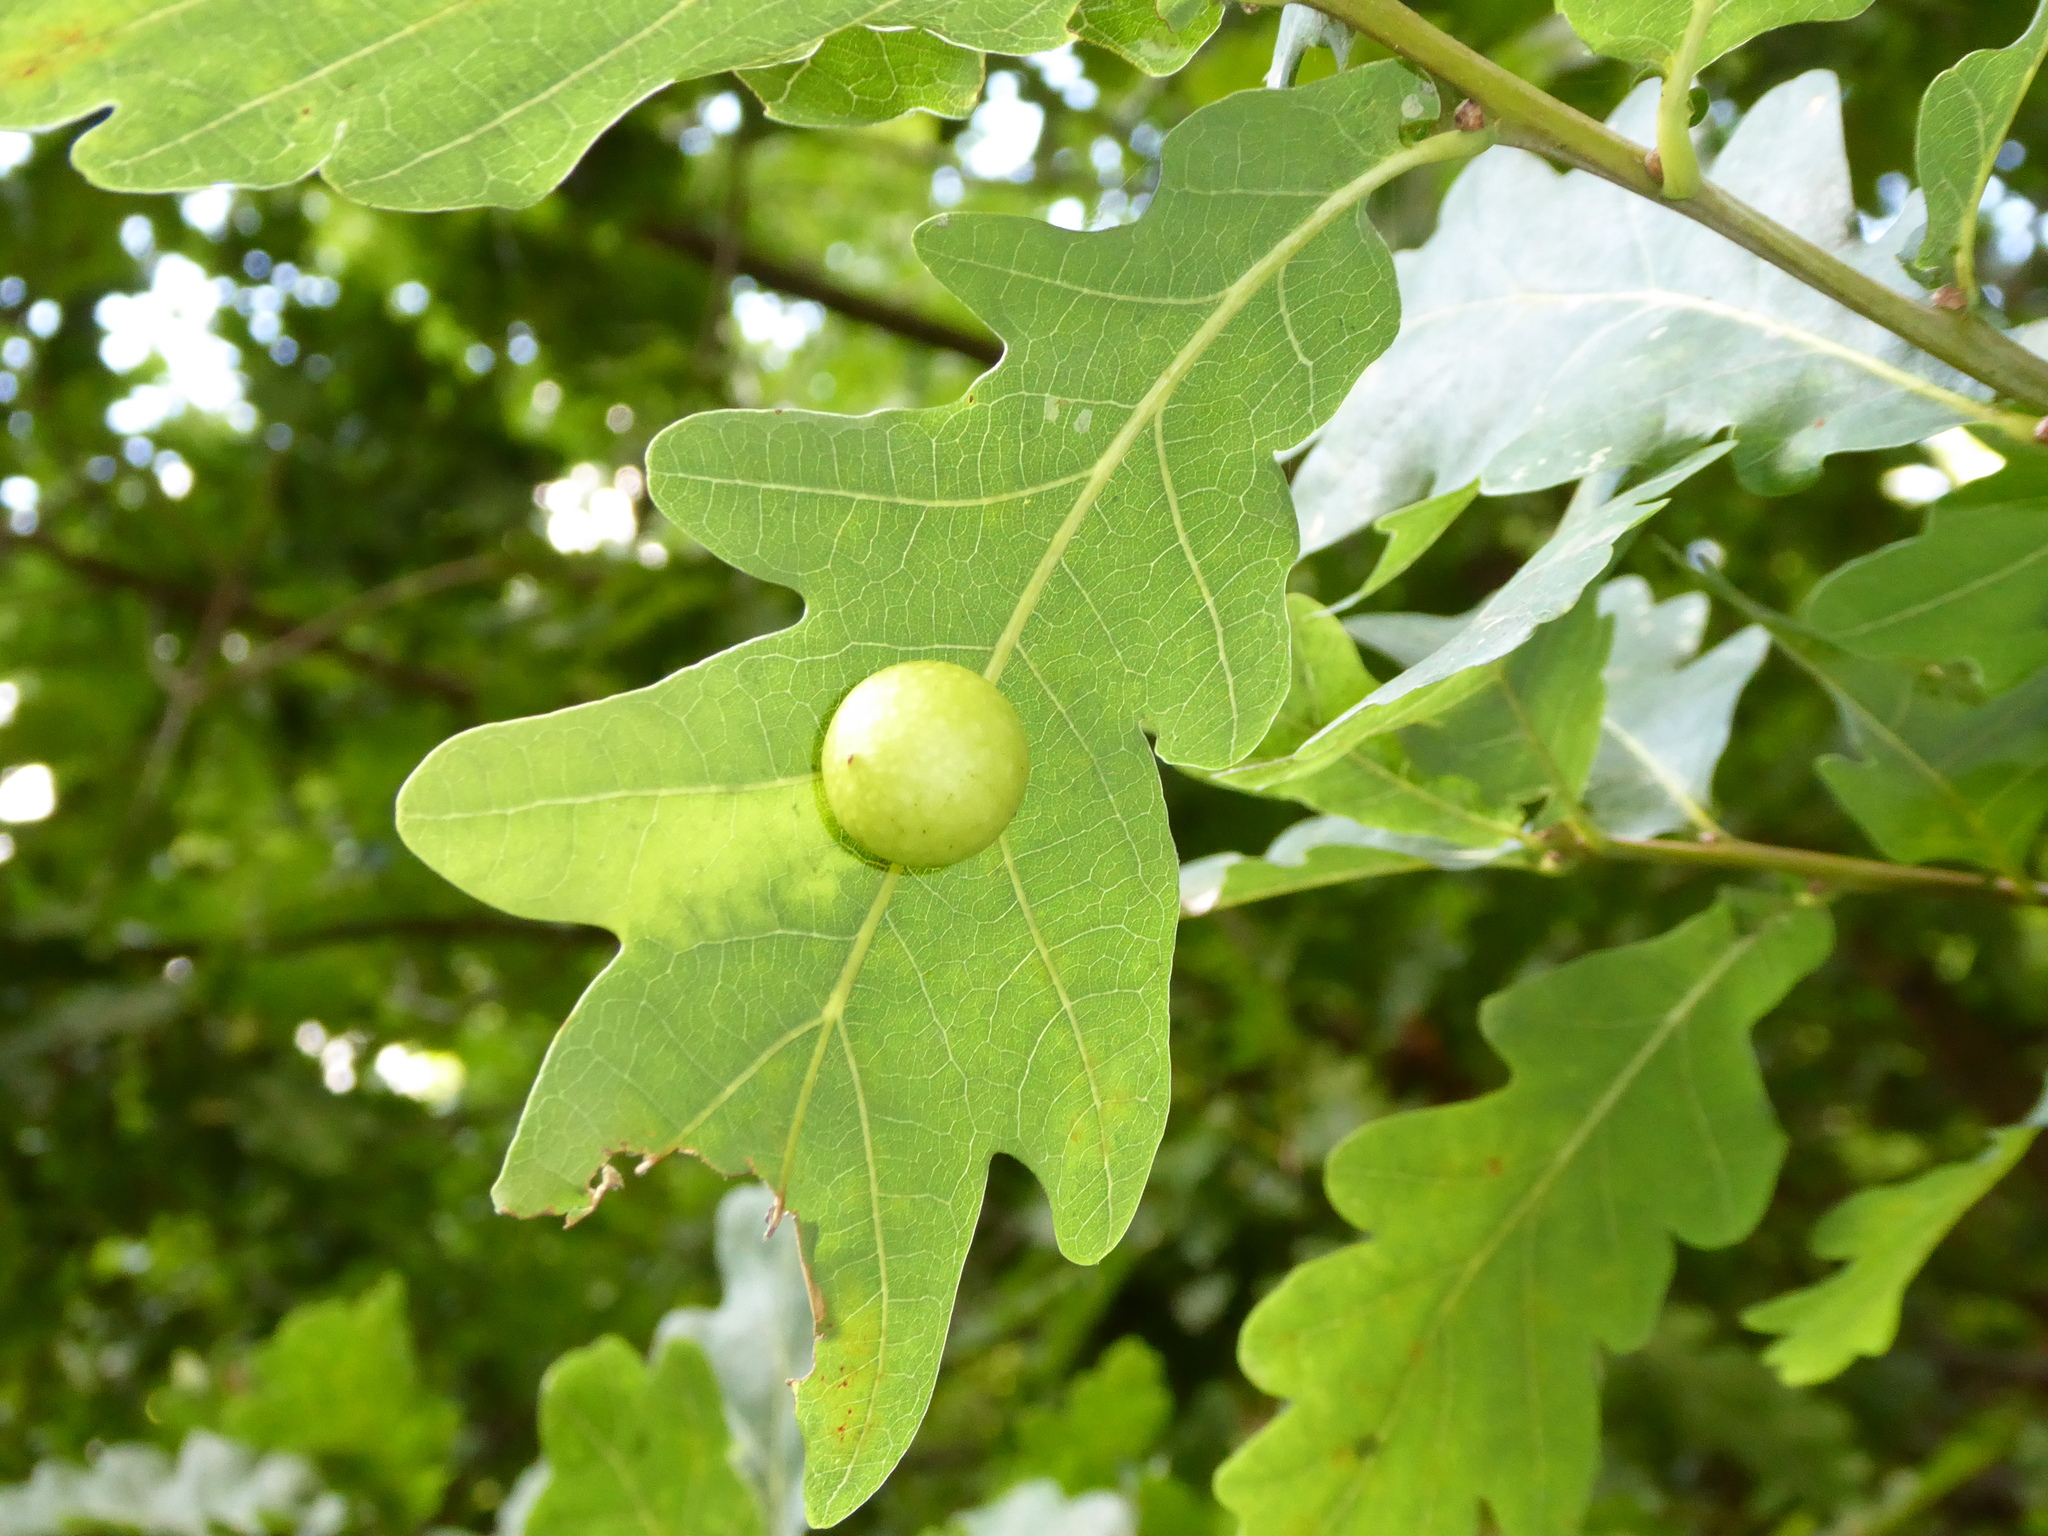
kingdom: Animalia
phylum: Arthropoda
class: Insecta
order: Hymenoptera
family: Cynipidae
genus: Cynips
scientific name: Cynips quercusfolii
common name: Cherry gall
